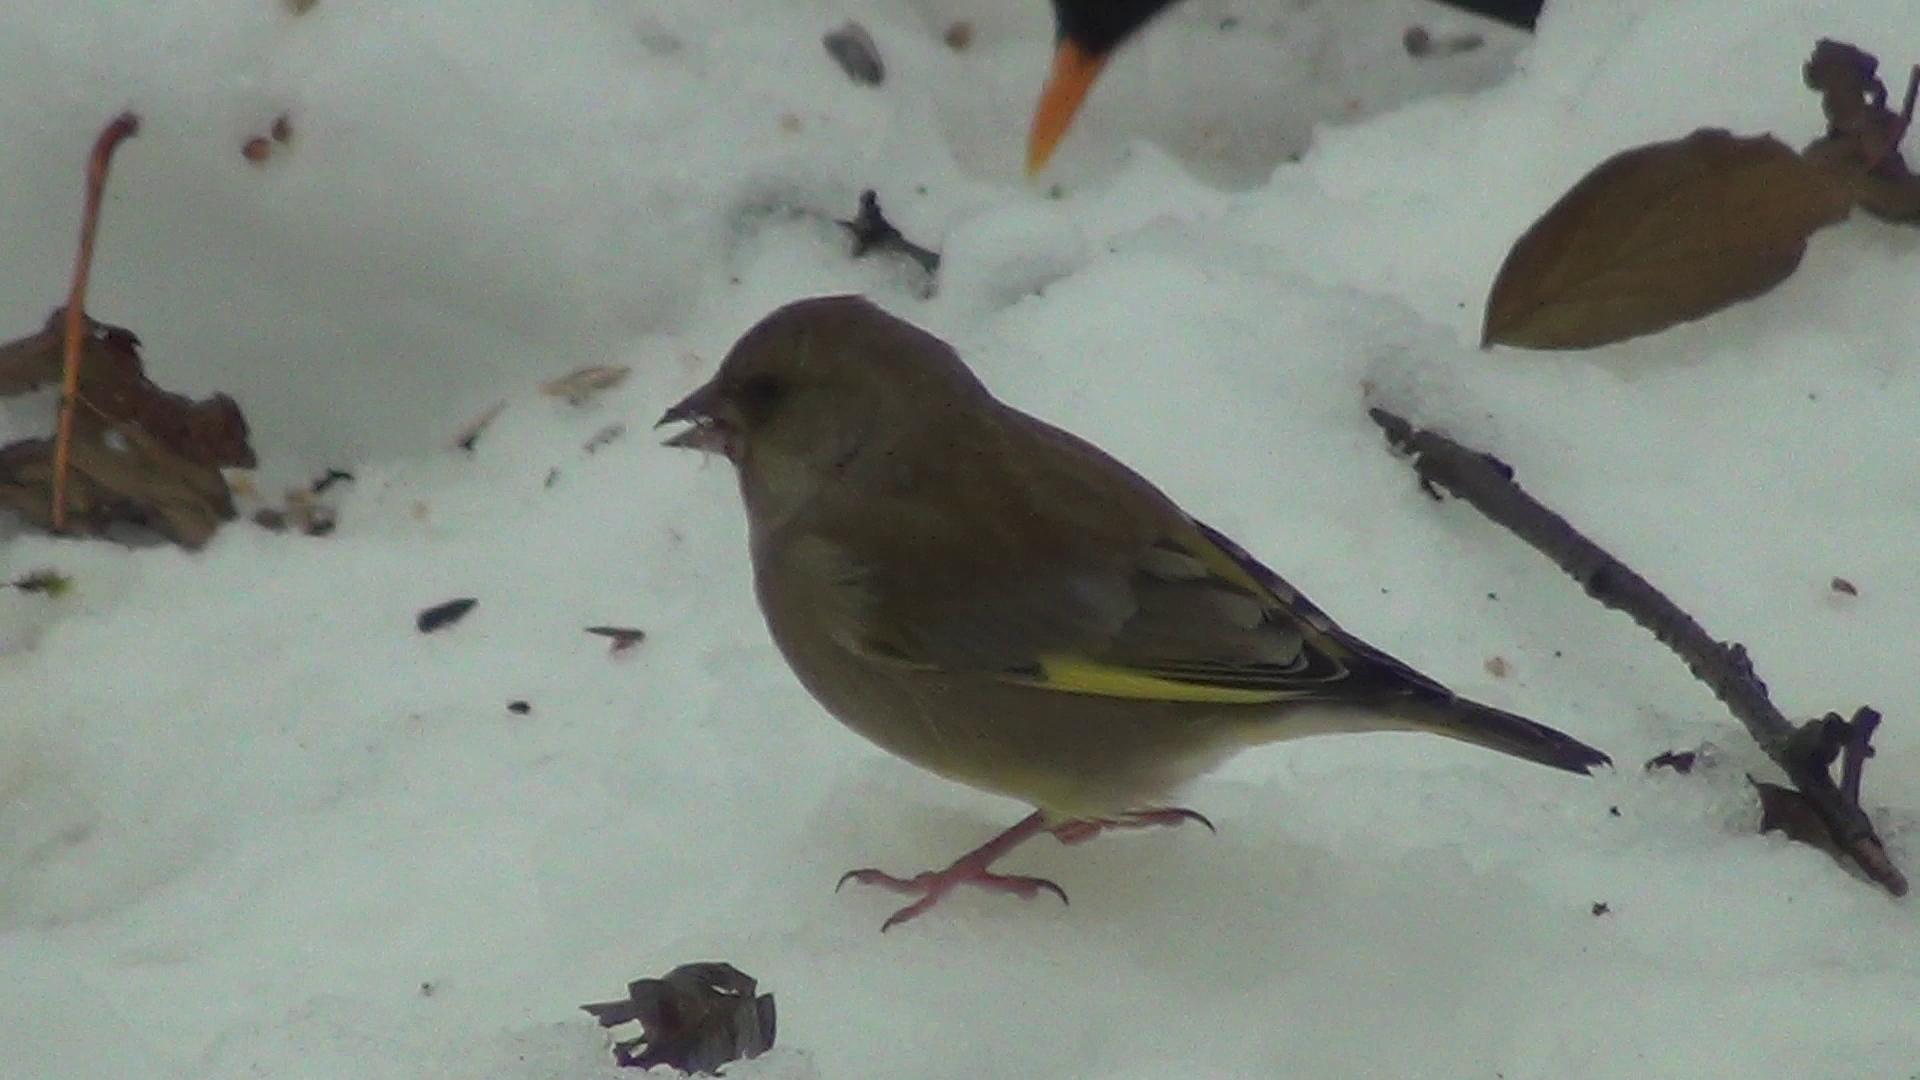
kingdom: Plantae
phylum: Tracheophyta
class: Liliopsida
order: Poales
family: Poaceae
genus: Chloris
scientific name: Chloris chloris
